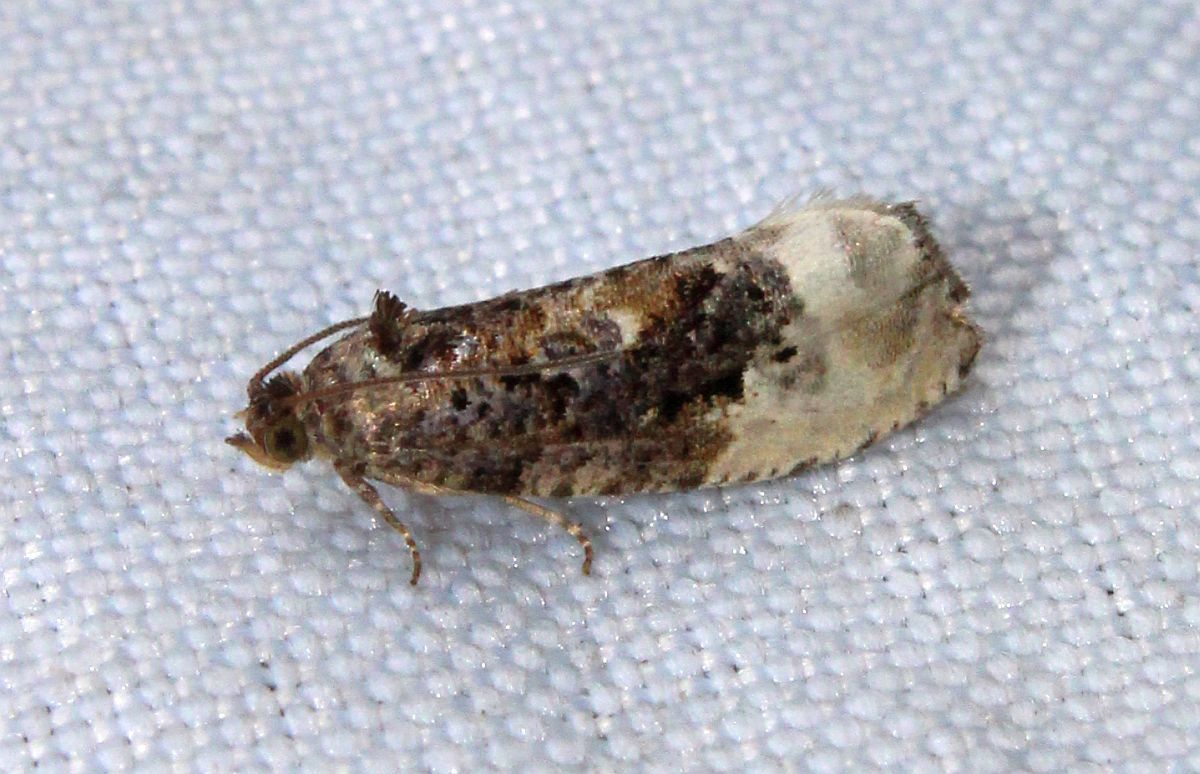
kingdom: Animalia
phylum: Arthropoda
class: Insecta
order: Lepidoptera
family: Tortricidae
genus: Hedya
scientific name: Hedya nubiferana
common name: Marbled orchard tortrix
